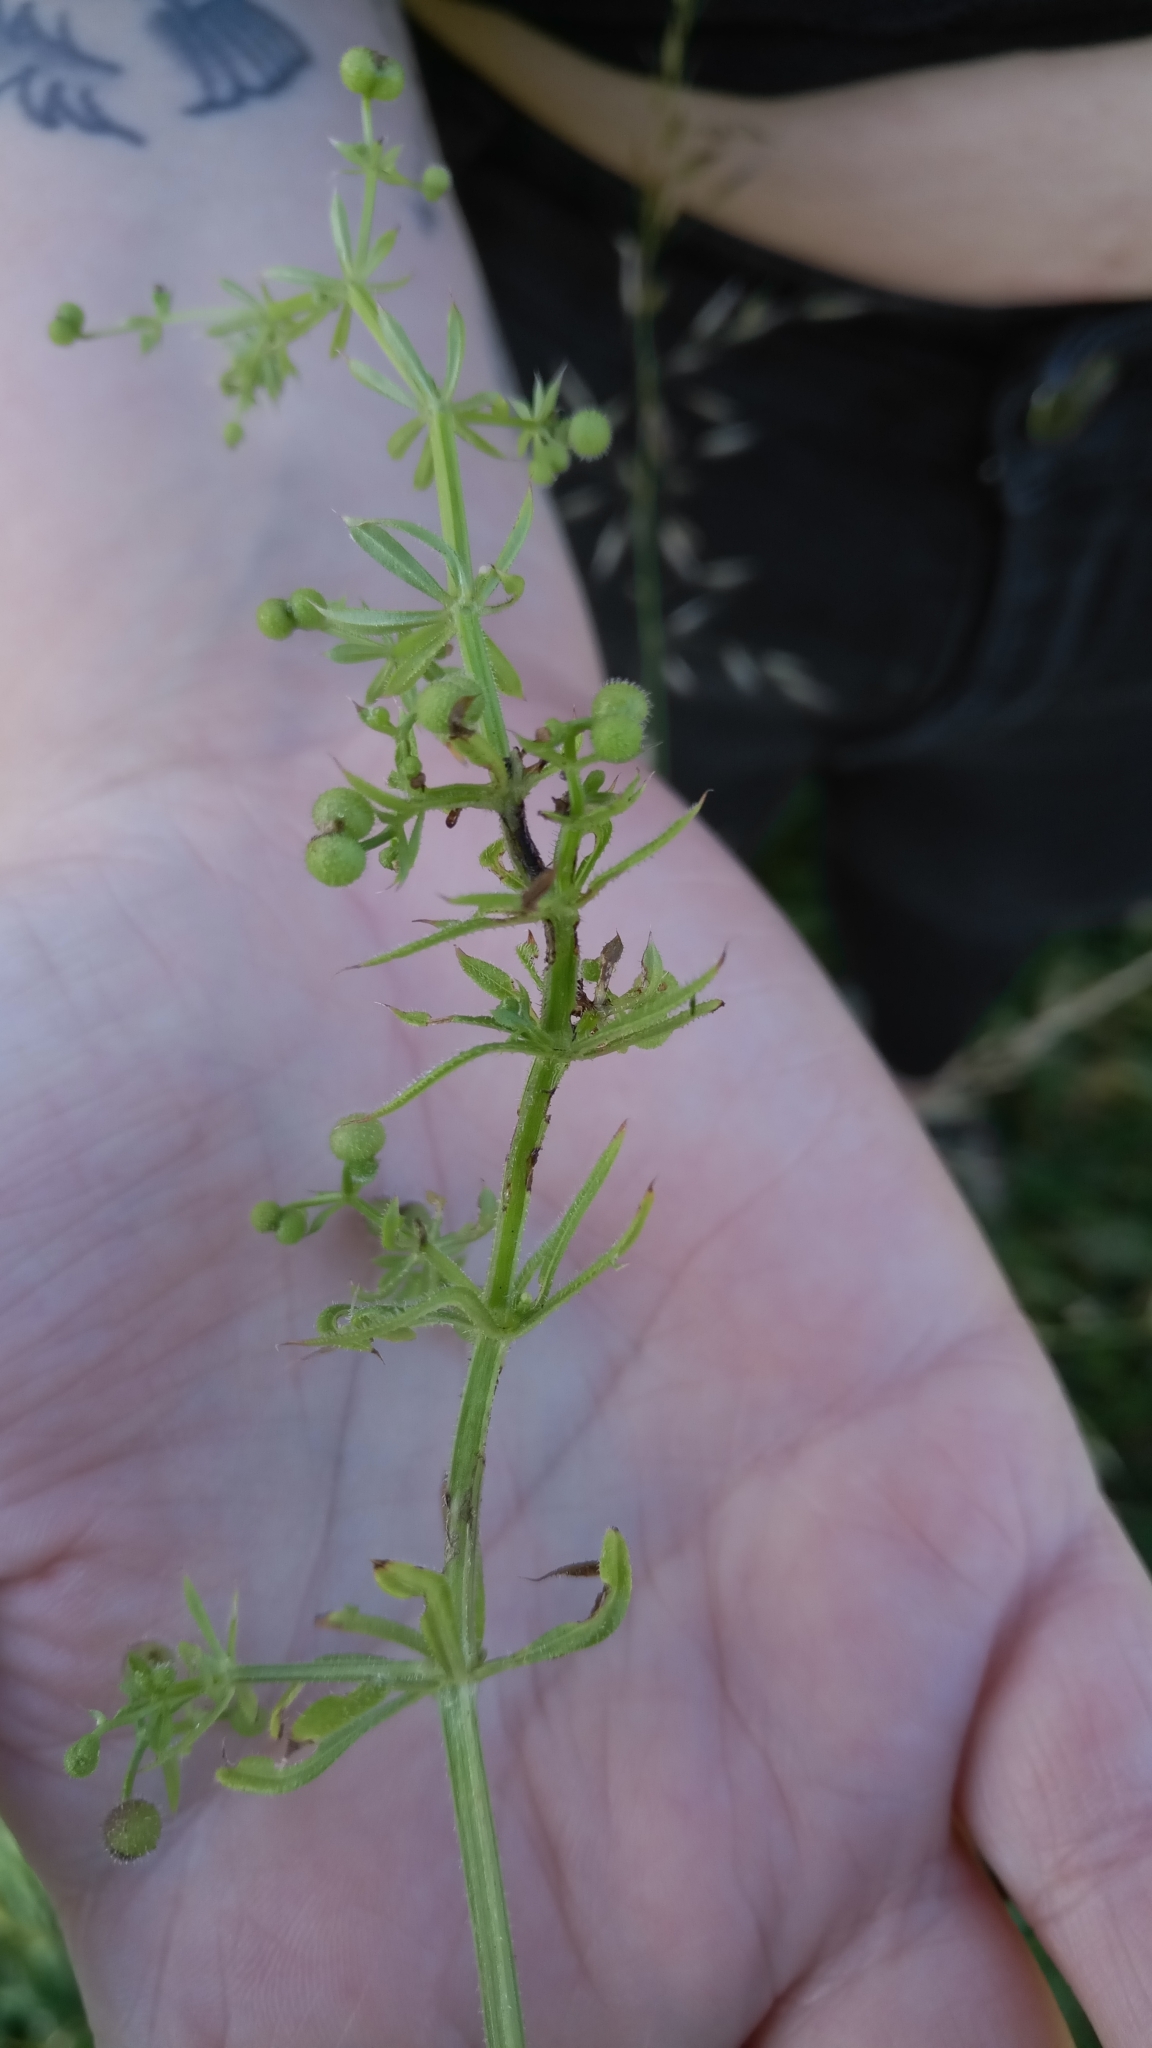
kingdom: Plantae
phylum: Tracheophyta
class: Magnoliopsida
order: Gentianales
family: Rubiaceae
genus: Galium
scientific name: Galium aparine
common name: Cleavers
